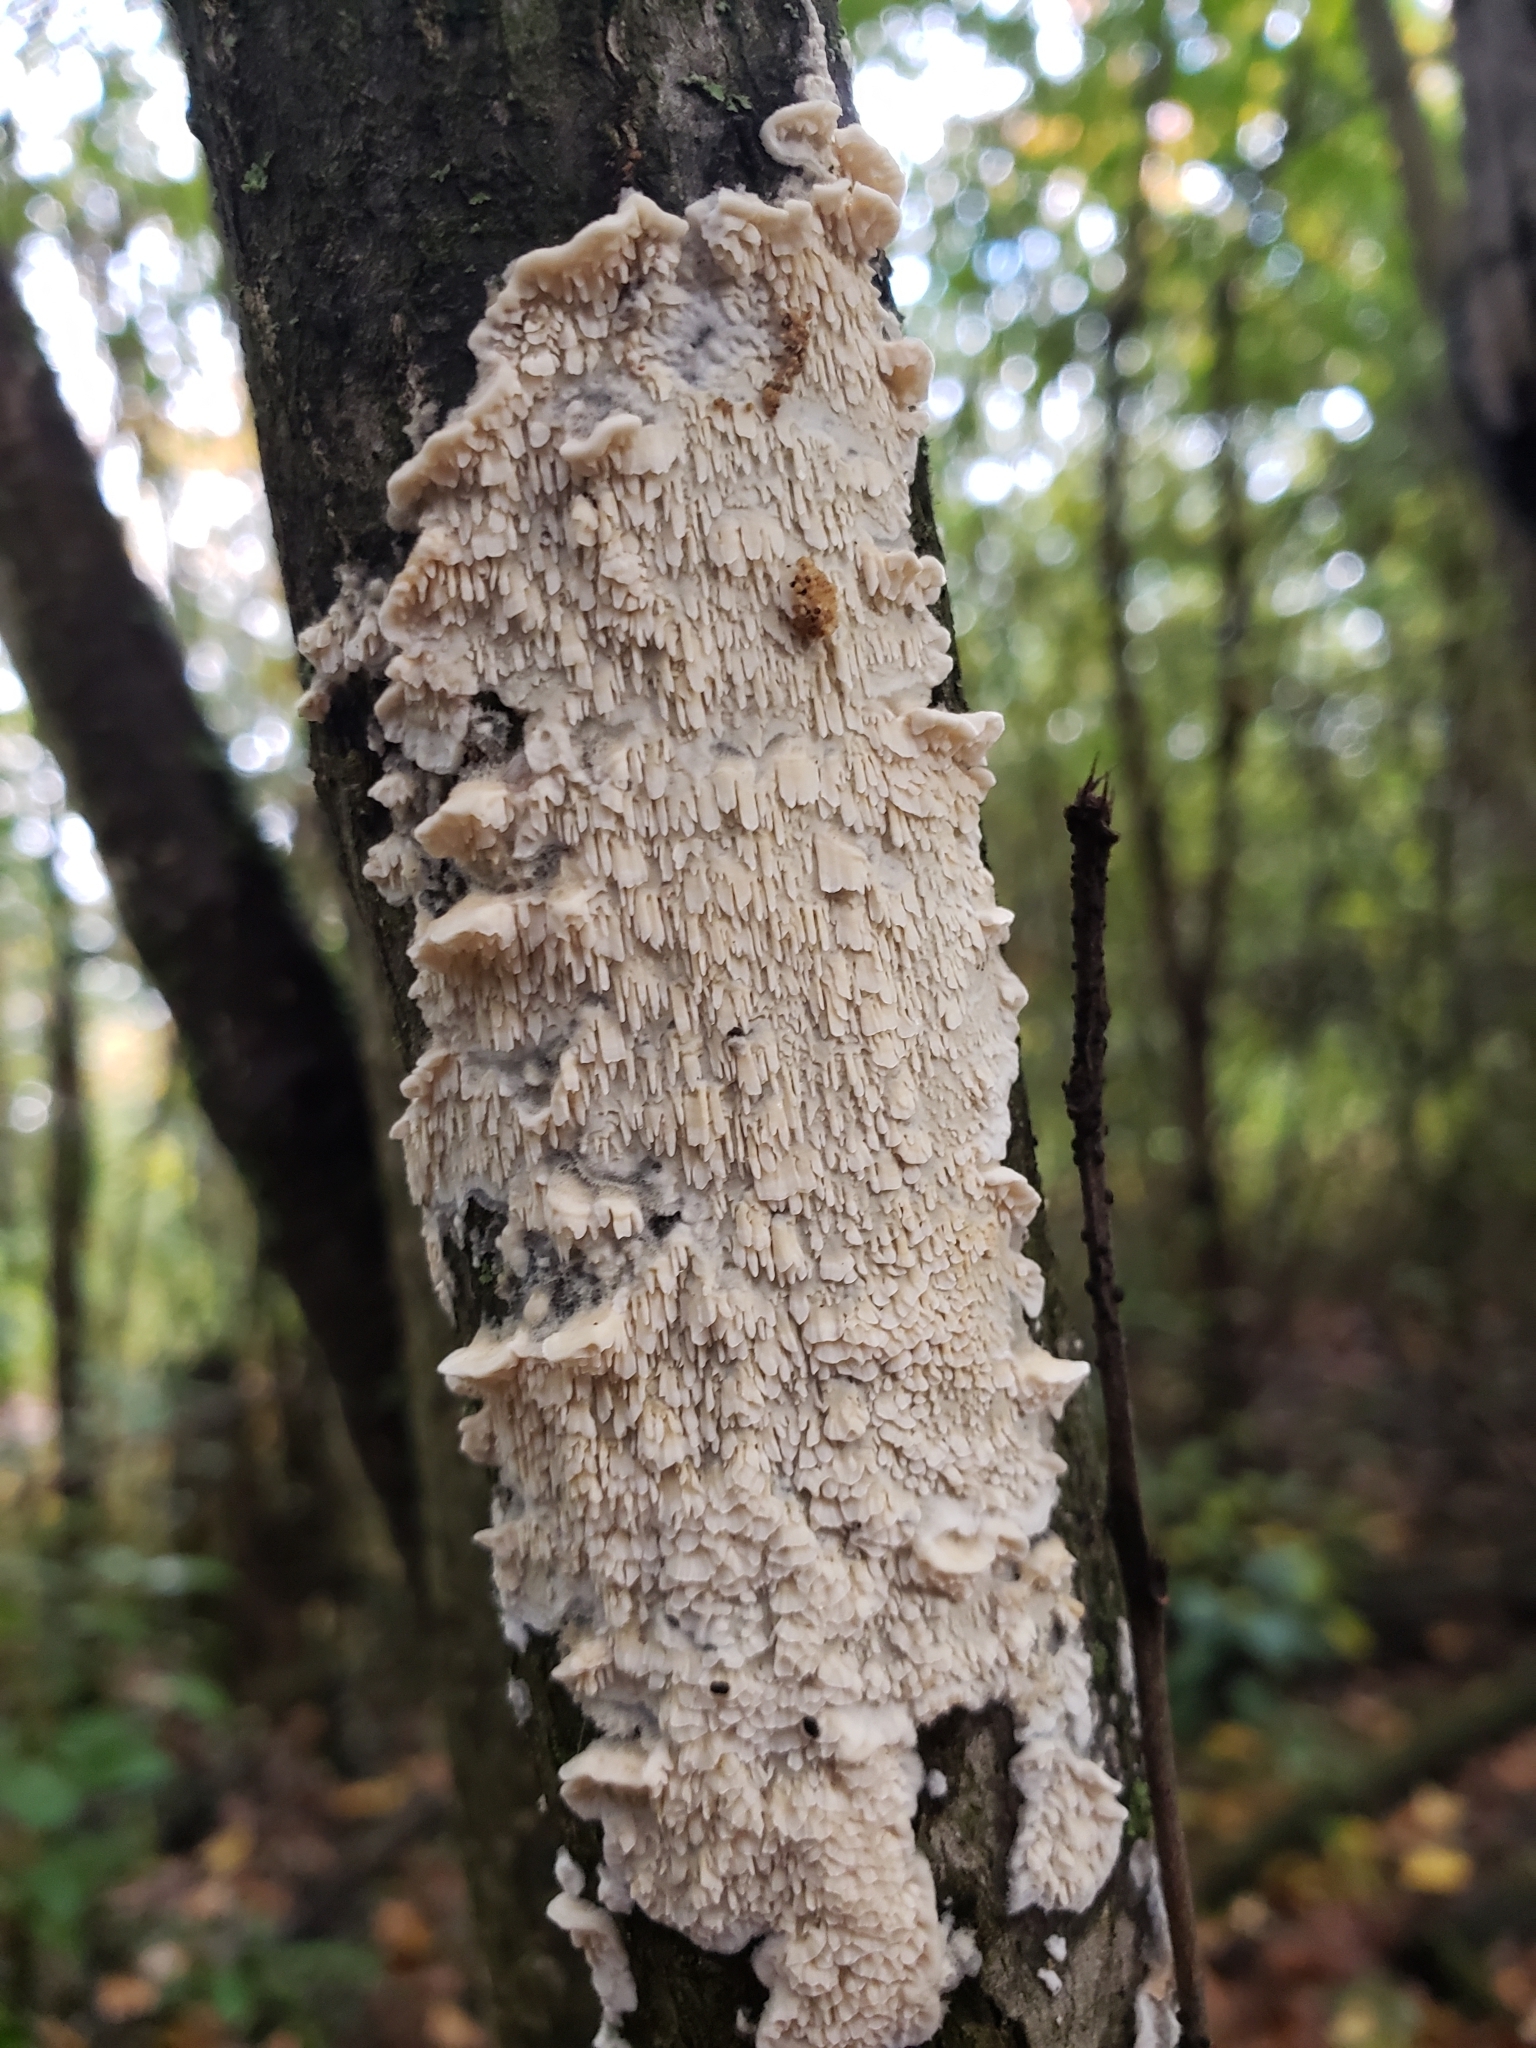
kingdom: Fungi
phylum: Basidiomycota
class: Agaricomycetes
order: Polyporales
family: Irpicaceae
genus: Irpex
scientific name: Irpex lacteus
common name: Milk-white toothed polypore
